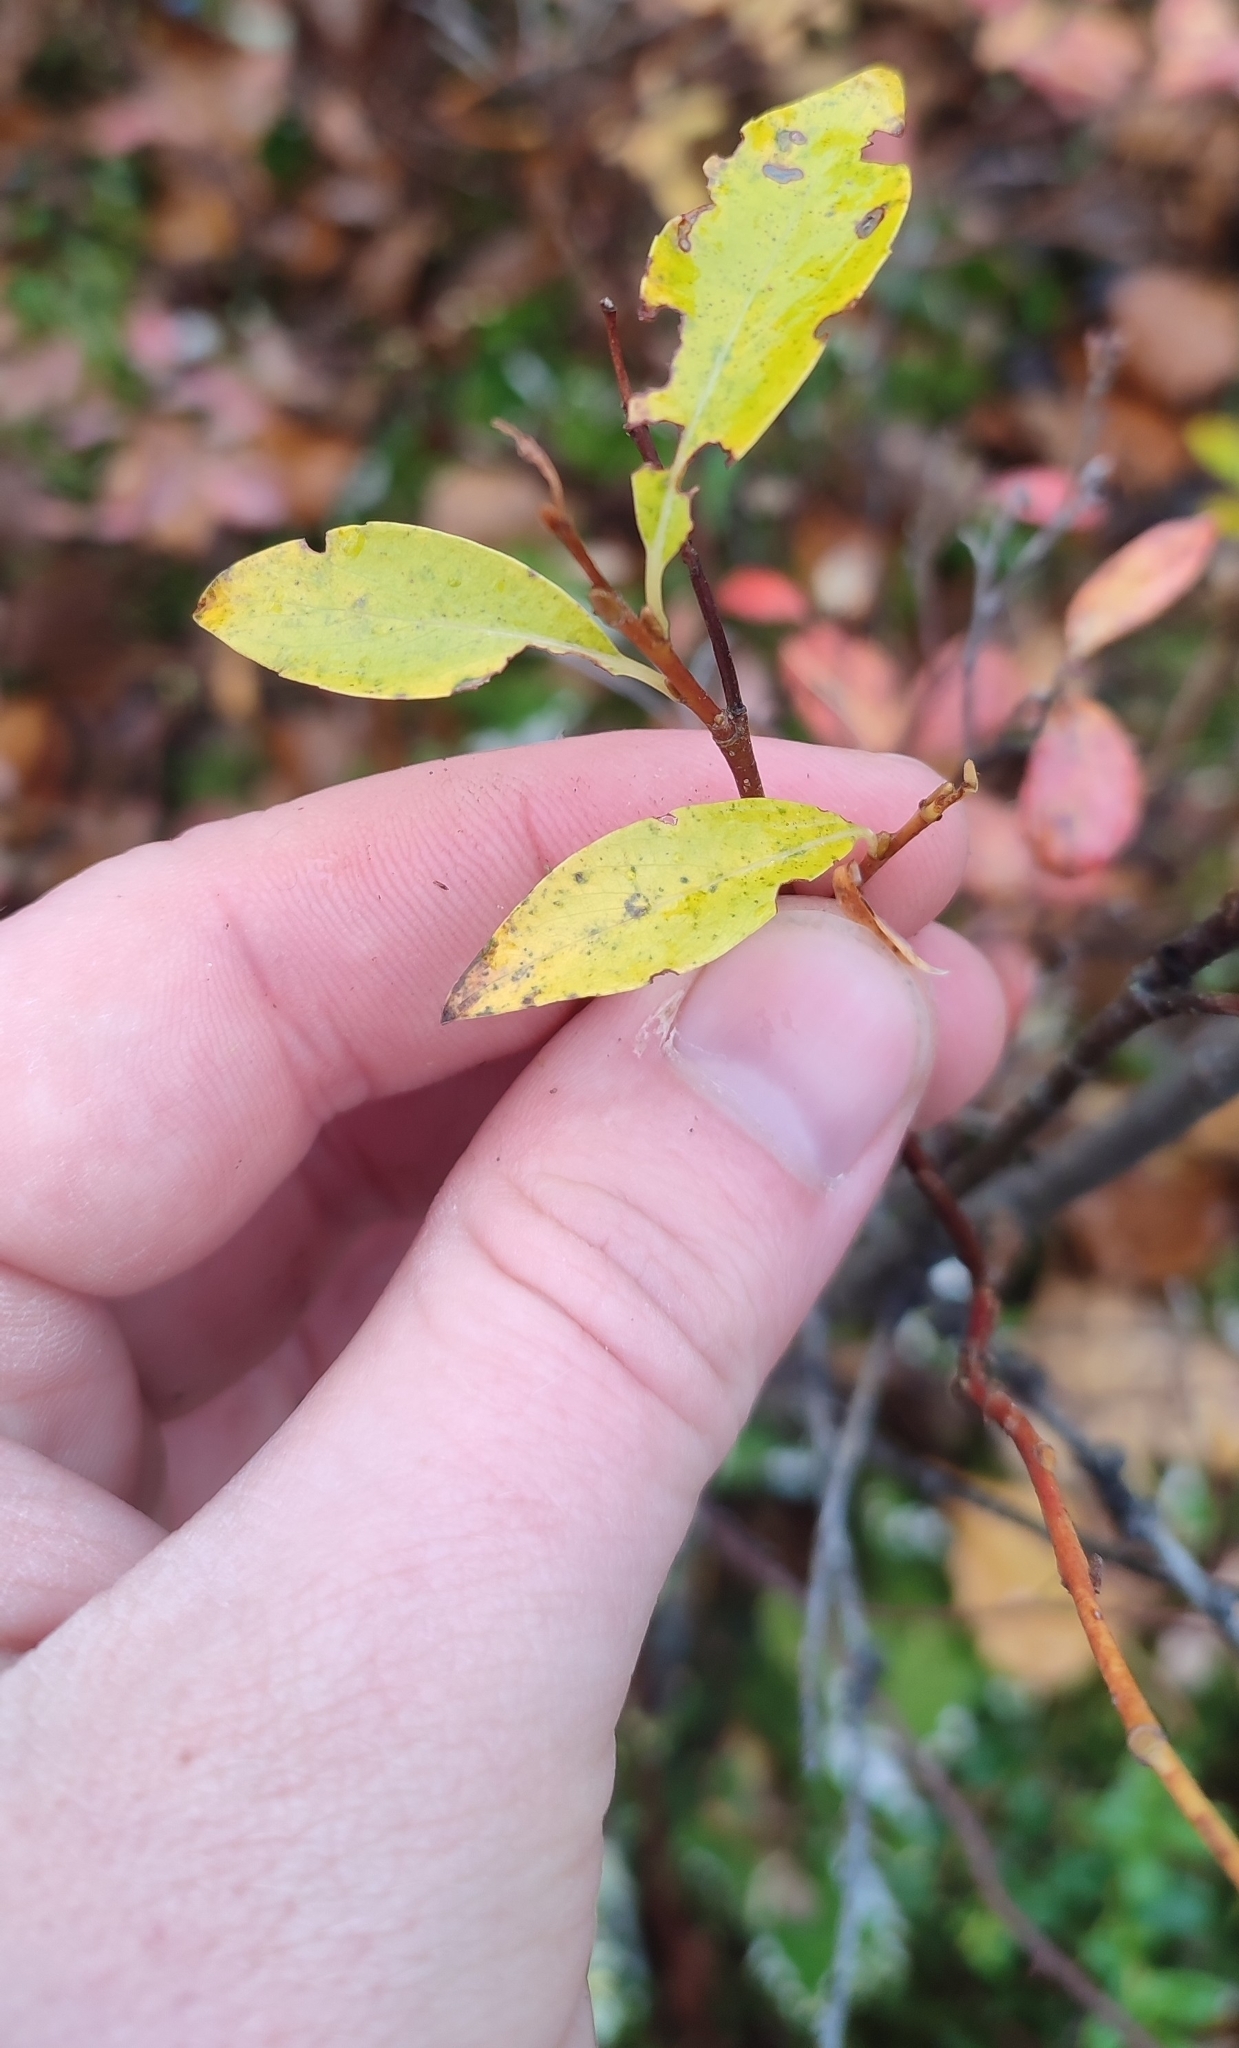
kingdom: Plantae
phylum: Tracheophyta
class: Magnoliopsida
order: Malpighiales
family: Salicaceae
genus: Salix
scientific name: Salix phylicifolia
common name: Tea-leaved willow
